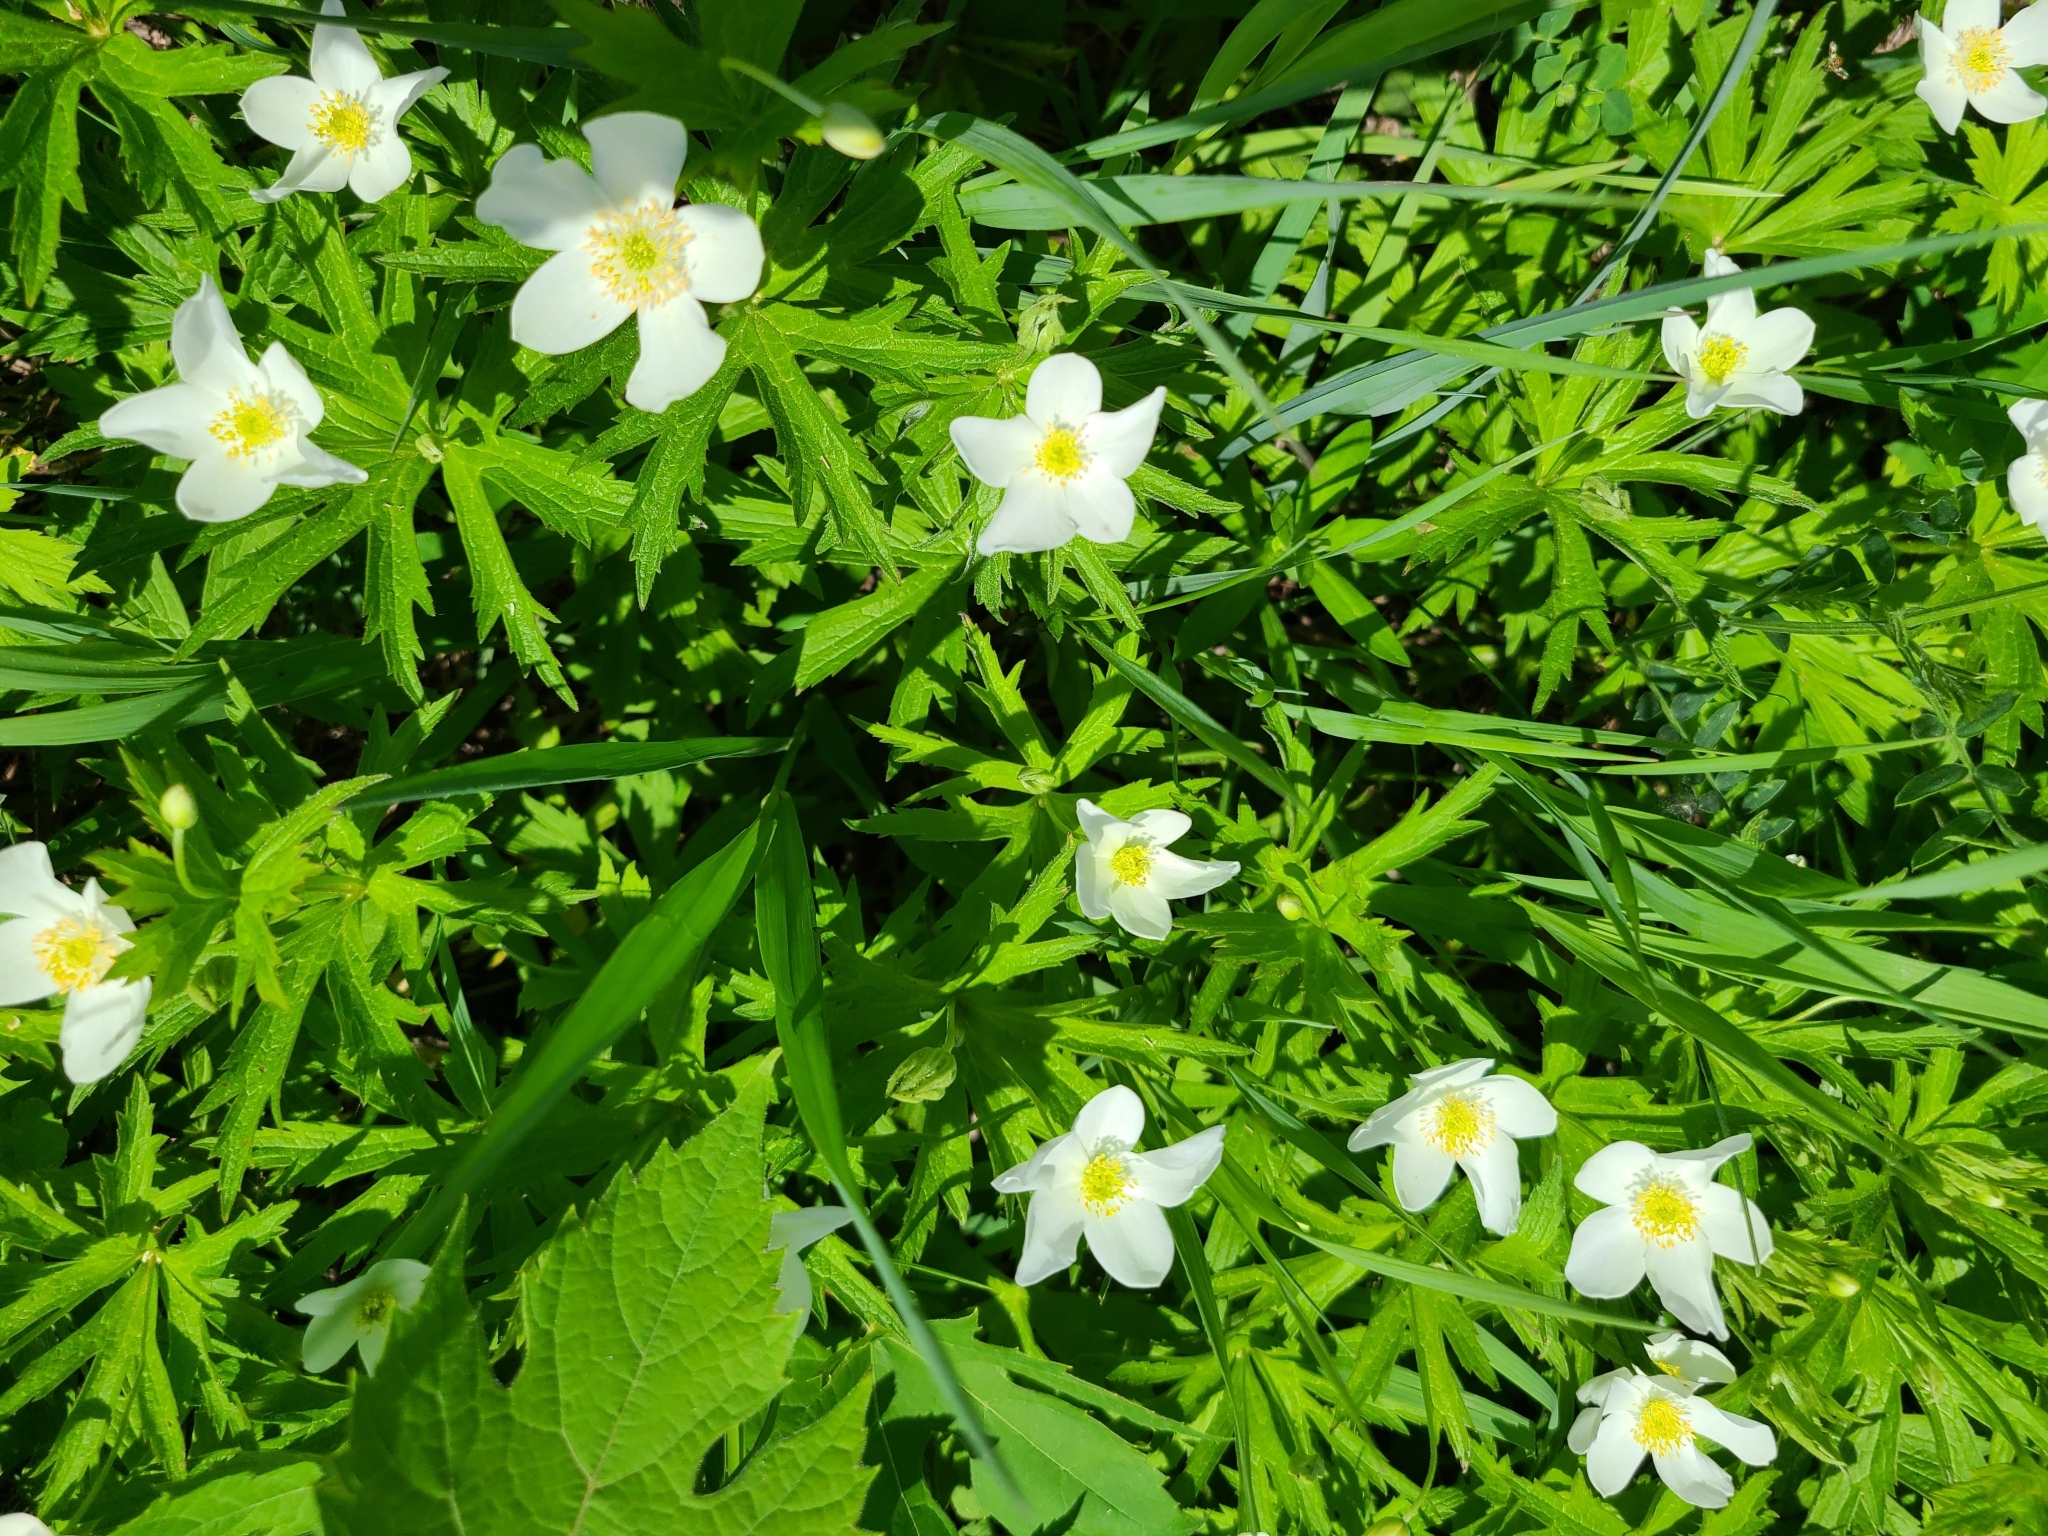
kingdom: Plantae
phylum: Tracheophyta
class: Magnoliopsida
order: Ranunculales
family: Ranunculaceae
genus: Anemonastrum
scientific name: Anemonastrum canadense
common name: Canada anemone
